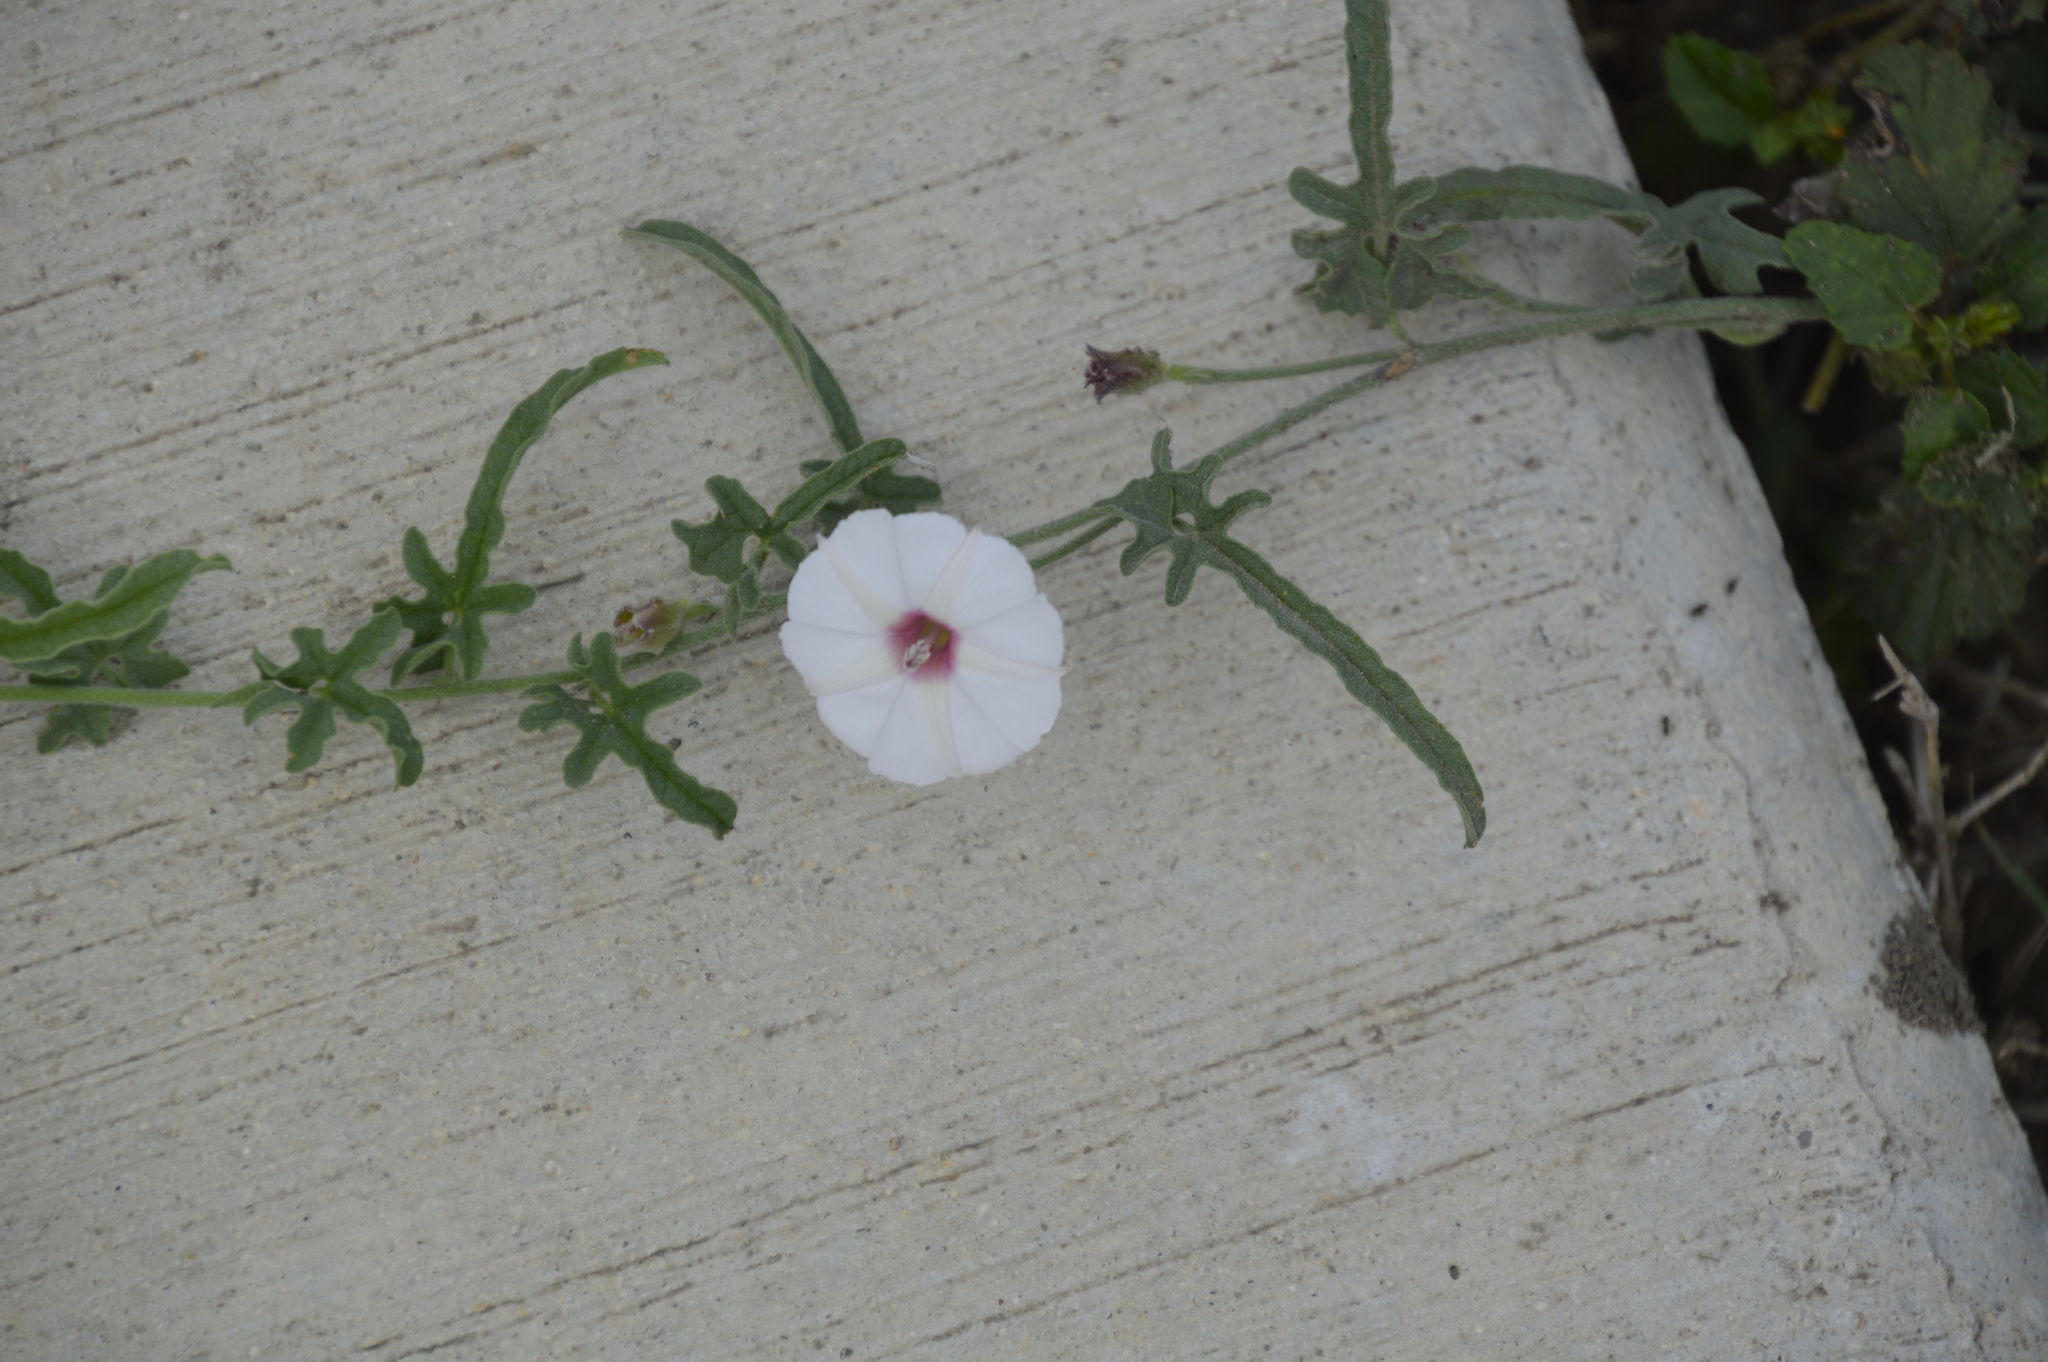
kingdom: Plantae
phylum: Tracheophyta
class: Magnoliopsida
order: Solanales
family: Convolvulaceae
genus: Convolvulus
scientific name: Convolvulus equitans
